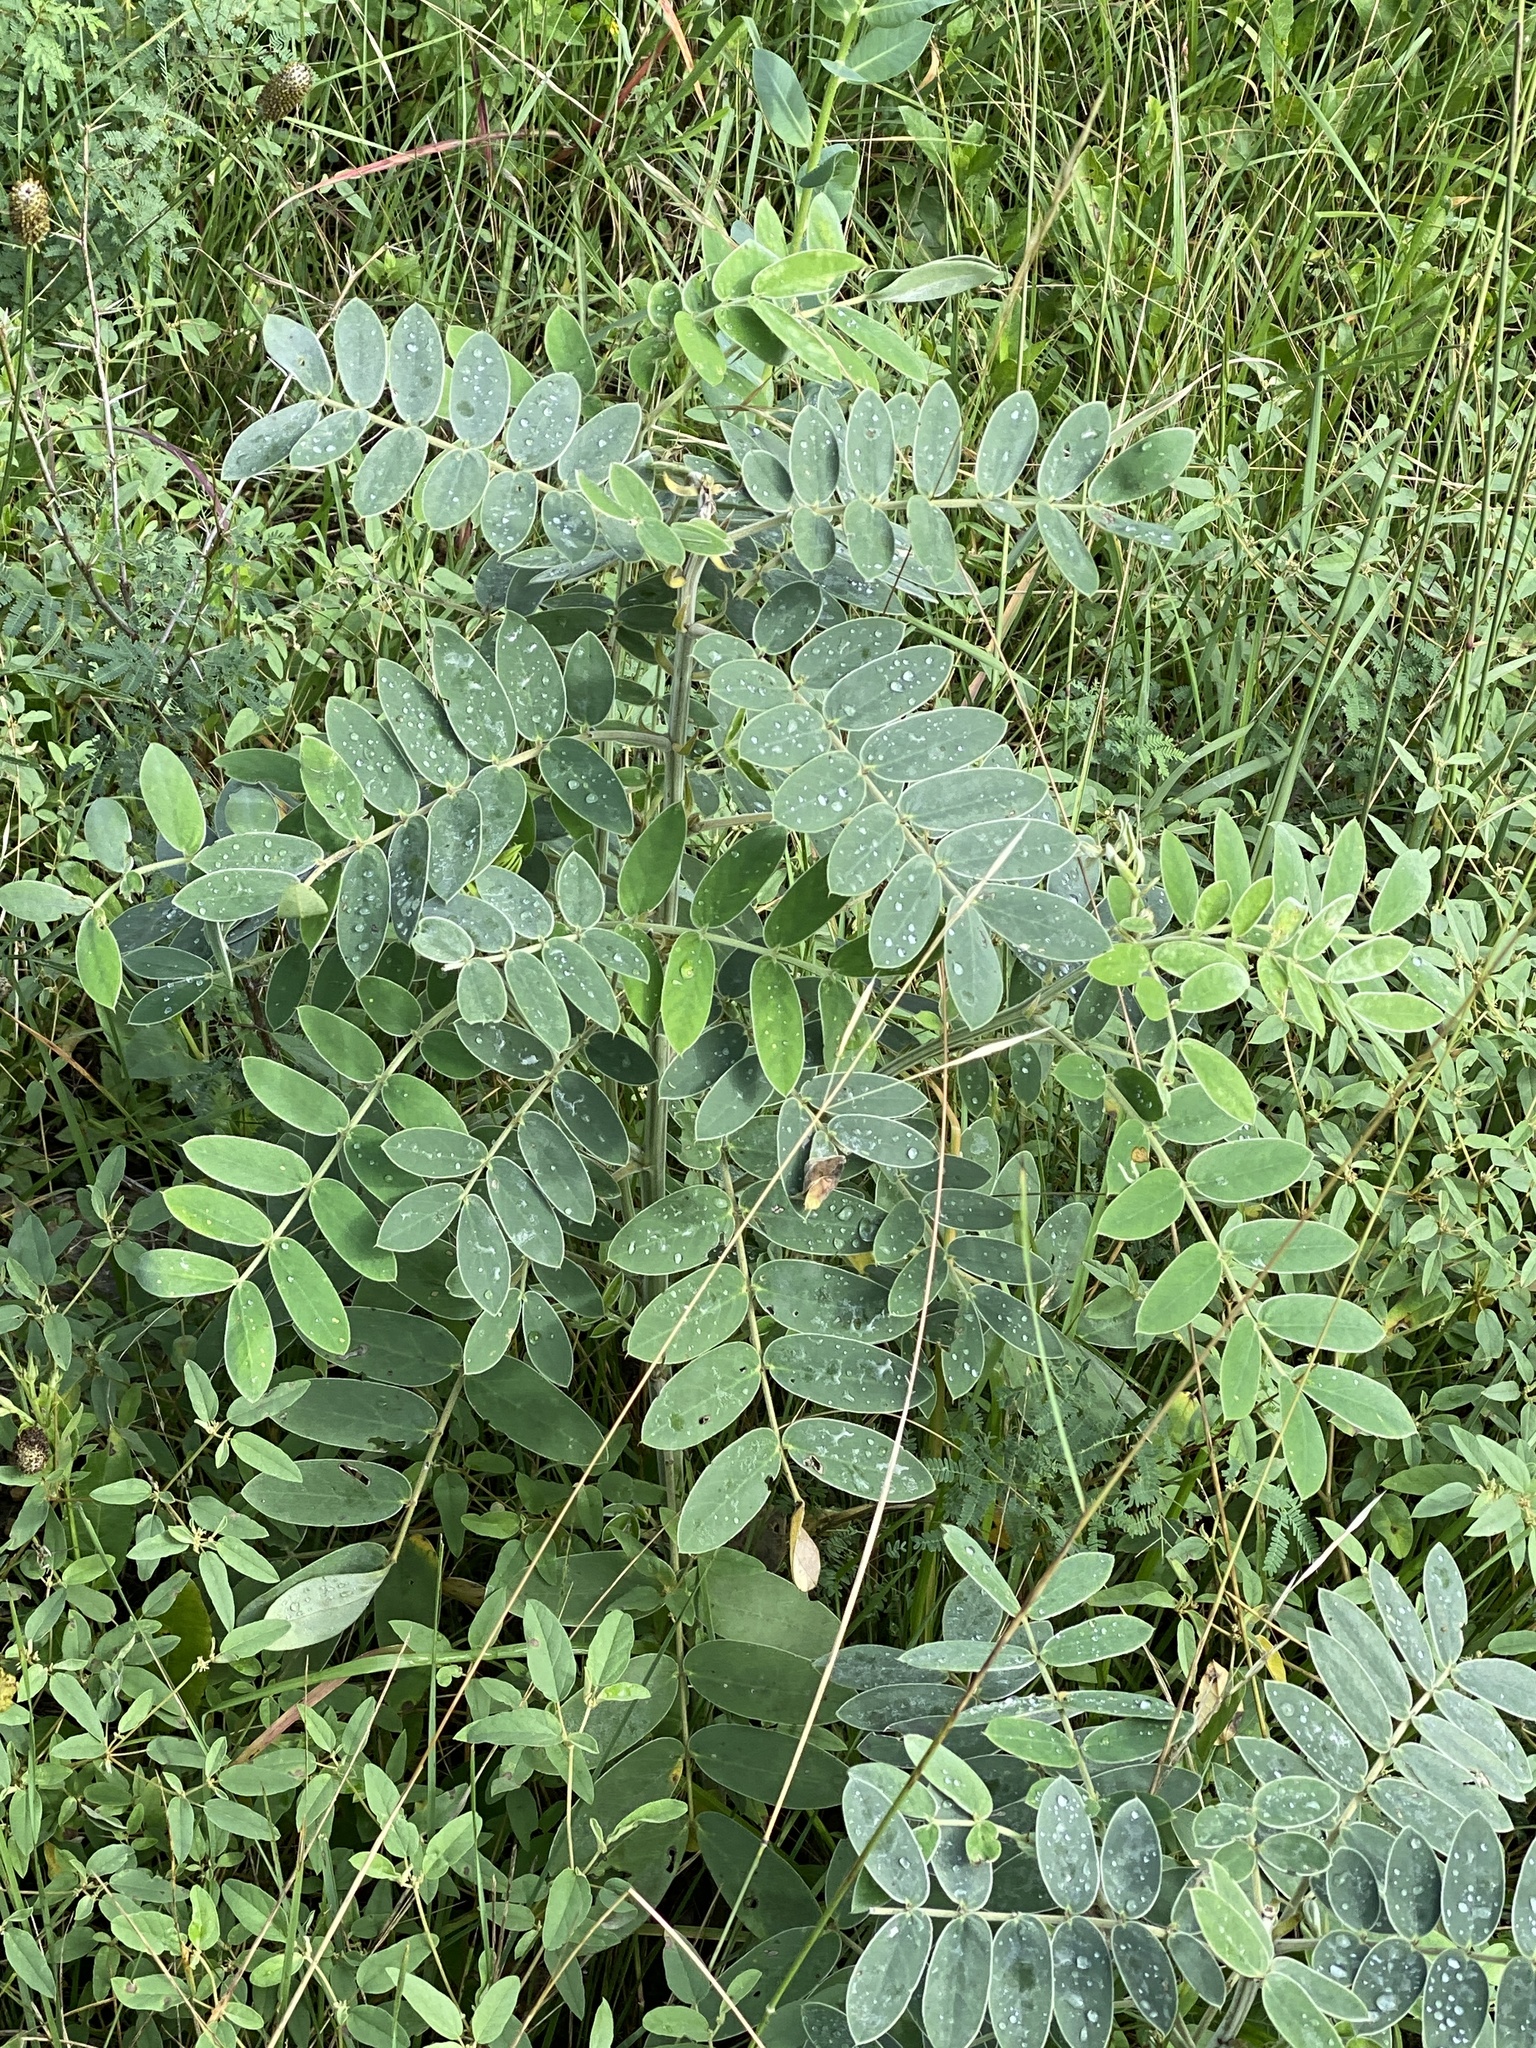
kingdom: Plantae
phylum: Tracheophyta
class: Magnoliopsida
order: Fabales
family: Fabaceae
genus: Senna
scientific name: Senna lindheimeriana
